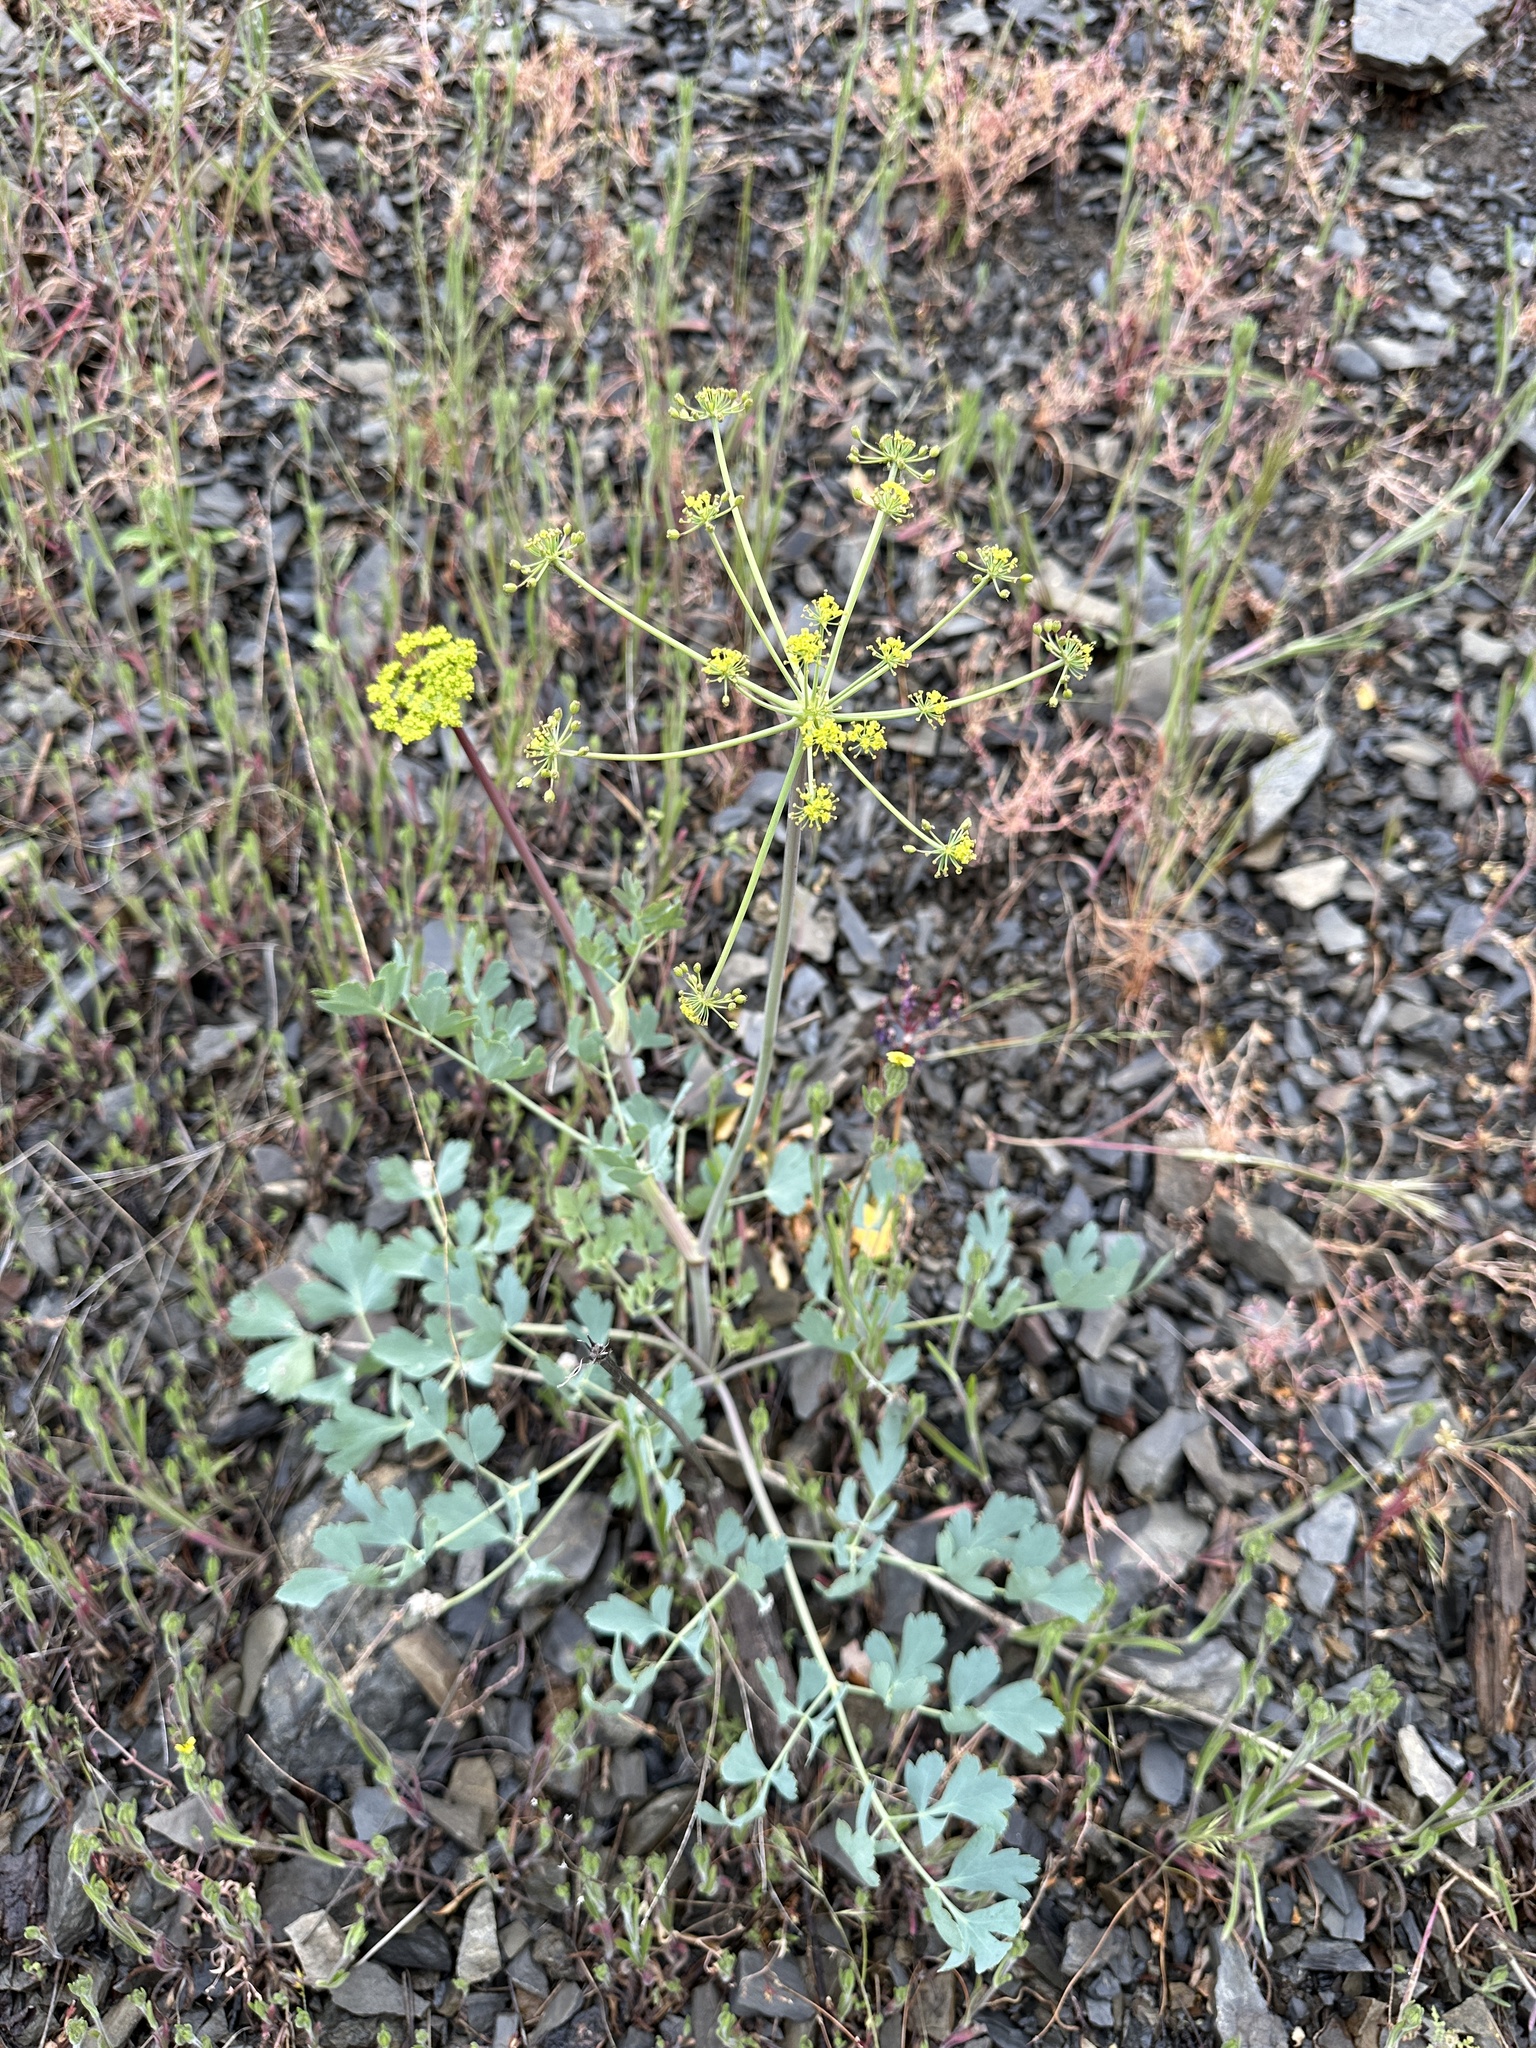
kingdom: Plantae
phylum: Tracheophyta
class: Magnoliopsida
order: Apiales
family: Apiaceae
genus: Lomatium
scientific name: Lomatium californicum
